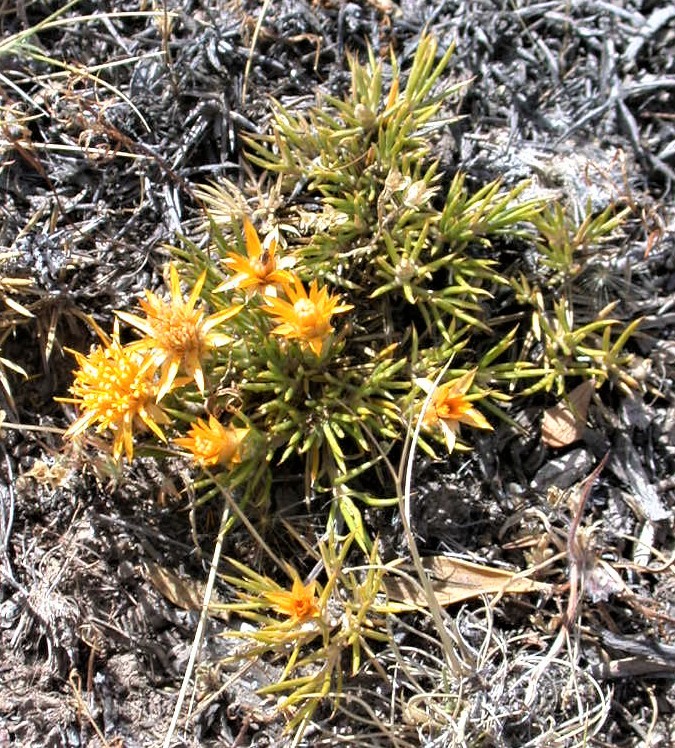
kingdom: Plantae
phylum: Tracheophyta
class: Magnoliopsida
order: Asterales
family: Asteraceae
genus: Chuquiraga
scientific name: Chuquiraga aurea
